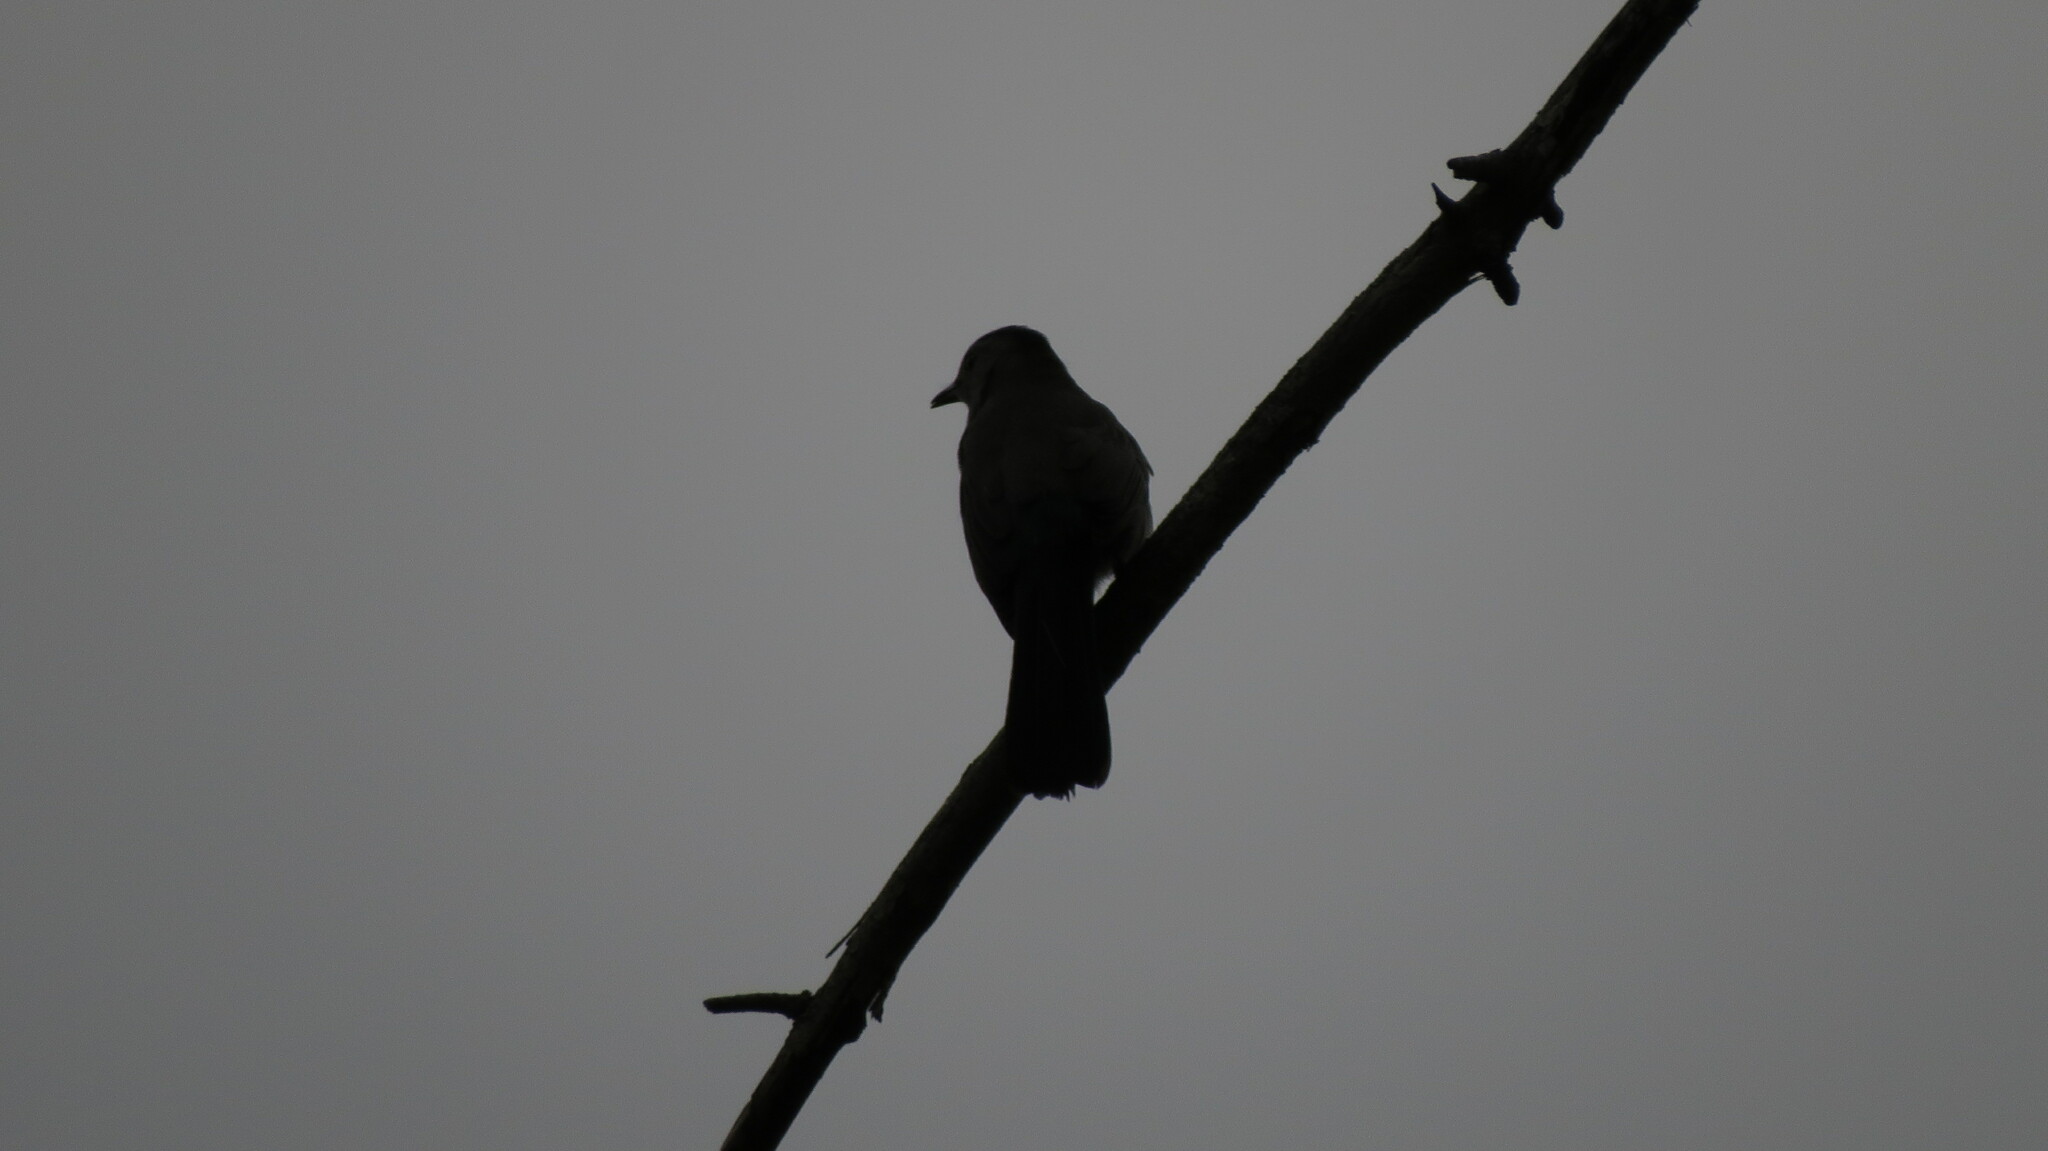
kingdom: Animalia
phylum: Chordata
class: Aves
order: Passeriformes
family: Mimidae
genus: Dumetella
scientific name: Dumetella carolinensis
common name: Gray catbird
